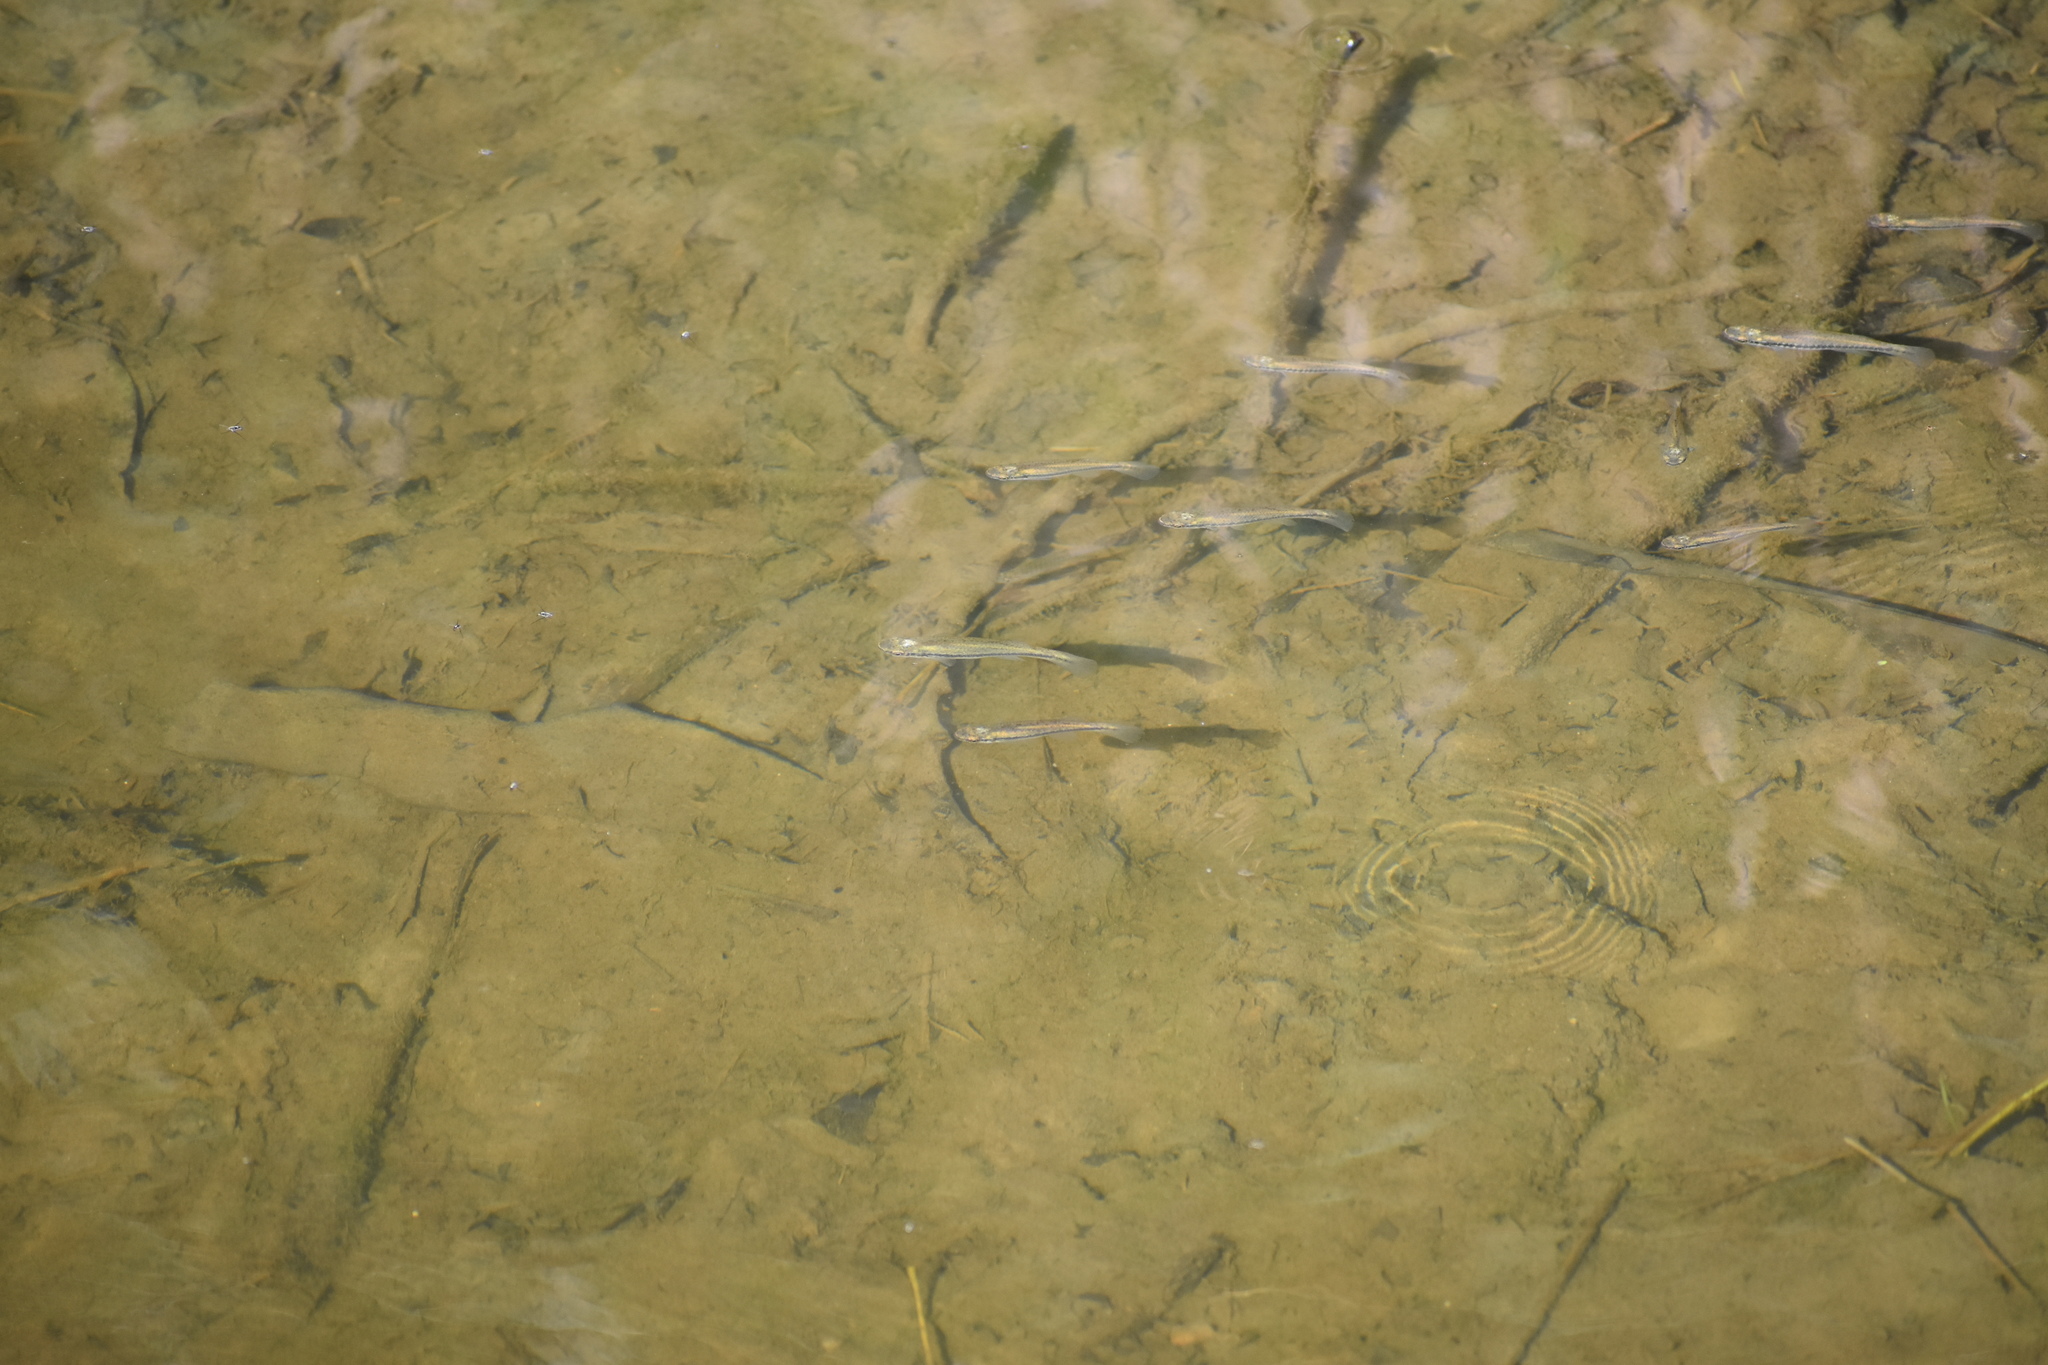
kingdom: Animalia
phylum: Chordata
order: Cyprinodontiformes
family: Fundulidae
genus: Fundulus
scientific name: Fundulus notatus
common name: Blackstripe topminnow
